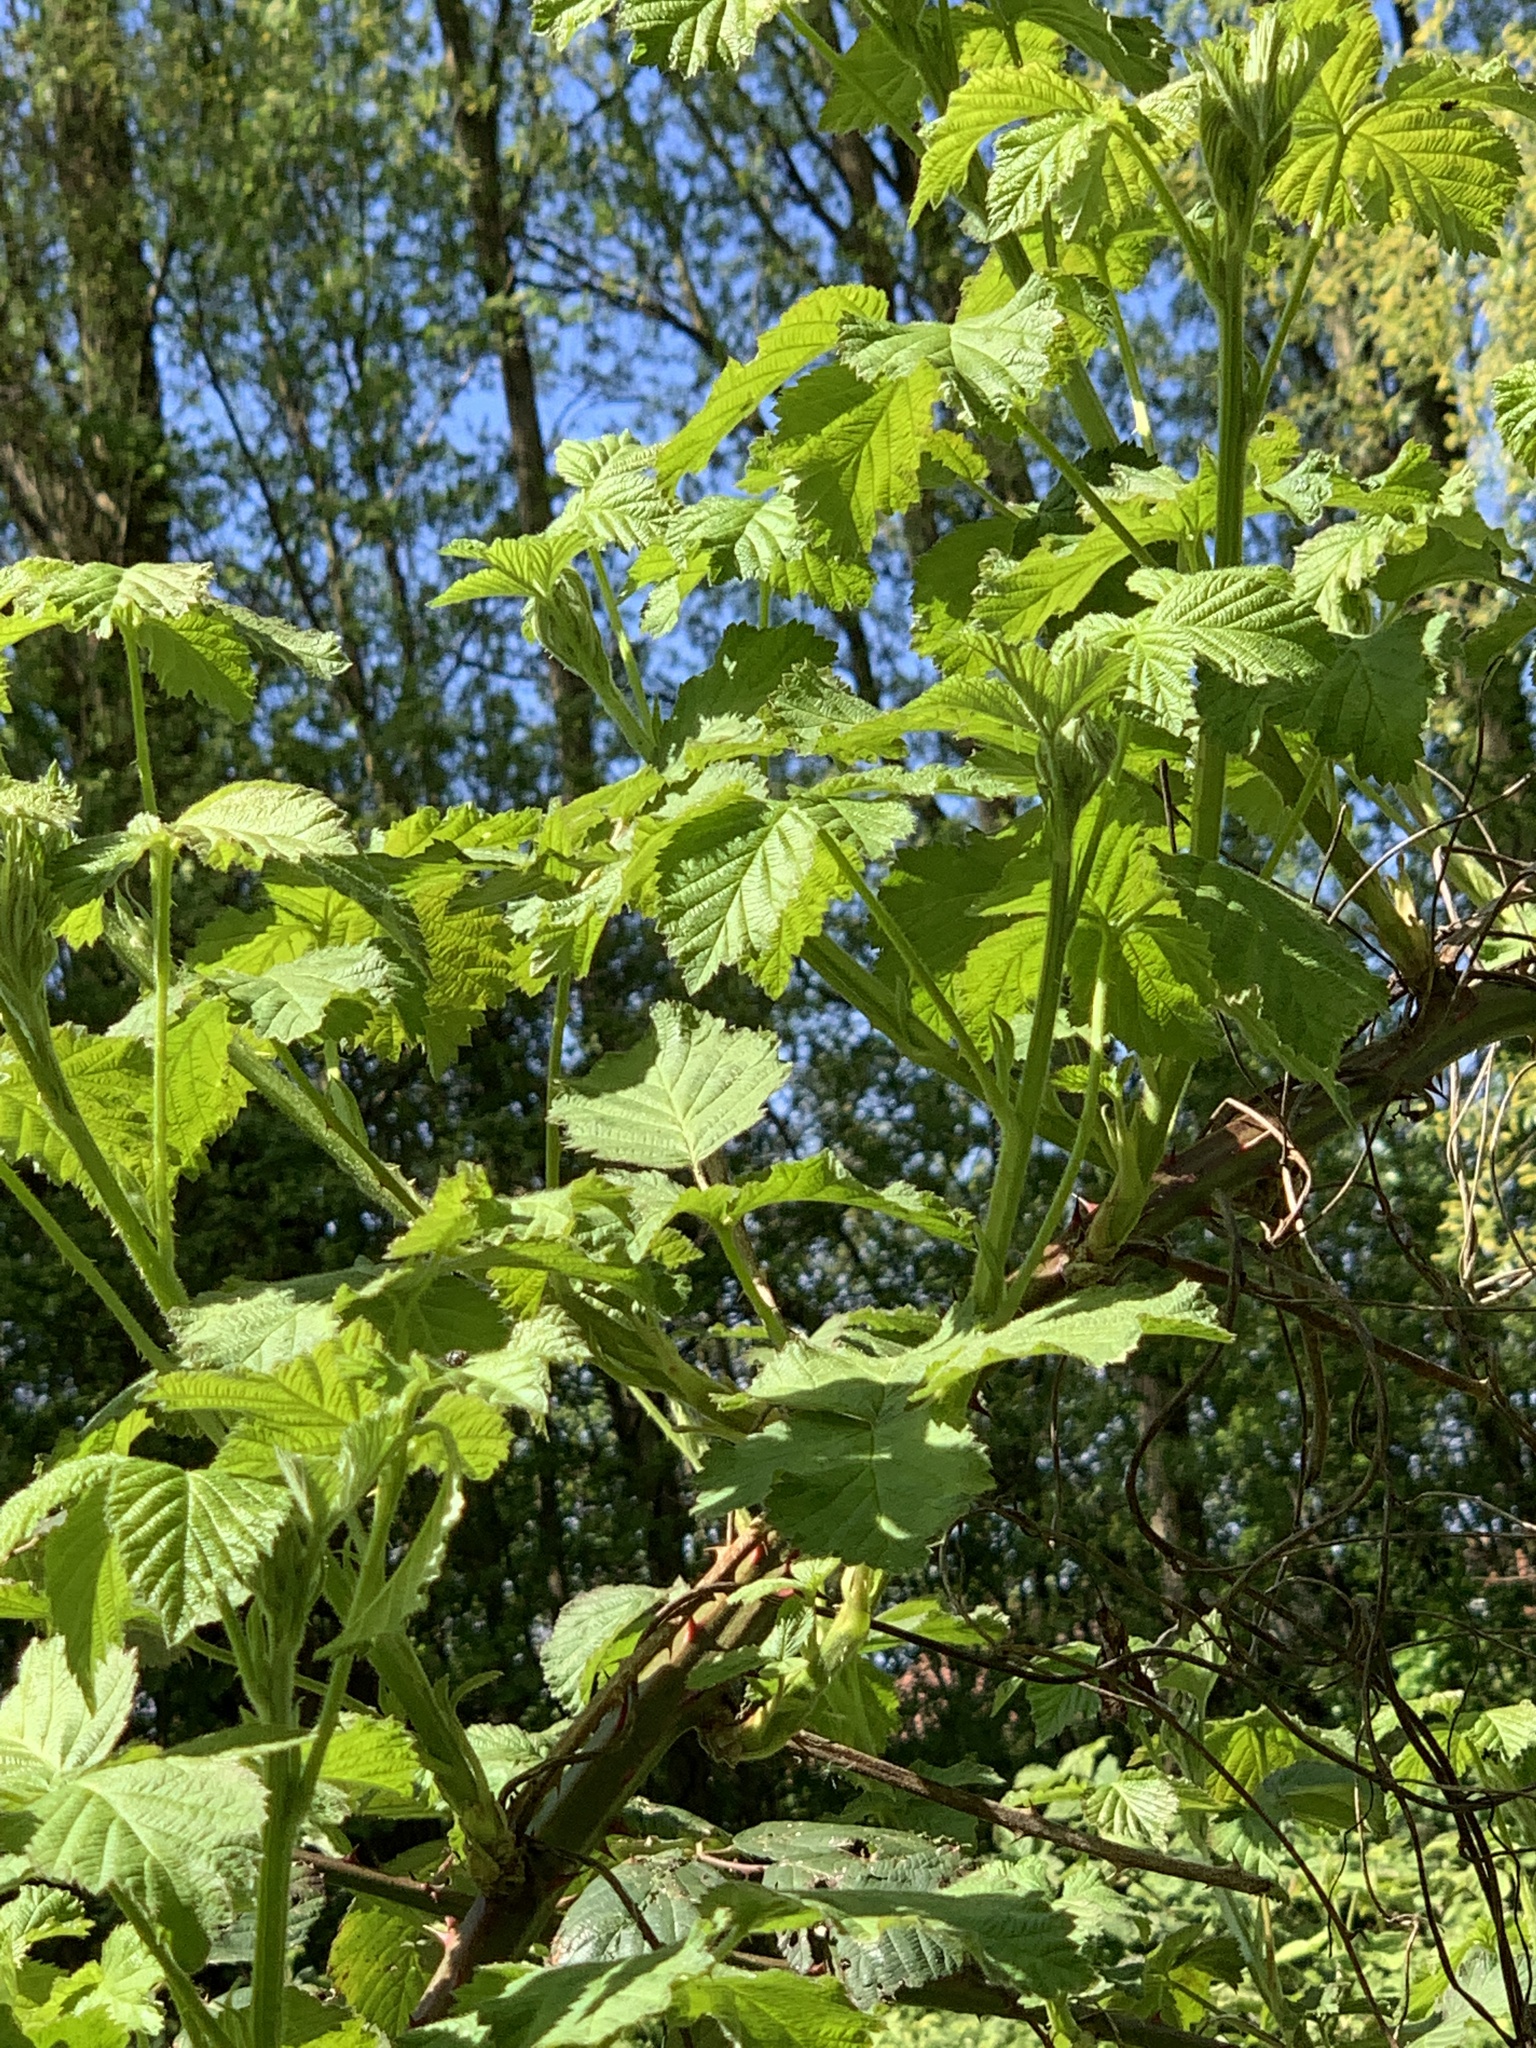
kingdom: Plantae
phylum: Tracheophyta
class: Magnoliopsida
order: Rosales
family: Rosaceae
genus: Rubus
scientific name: Rubus armeniacus
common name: Himalayan blackberry
